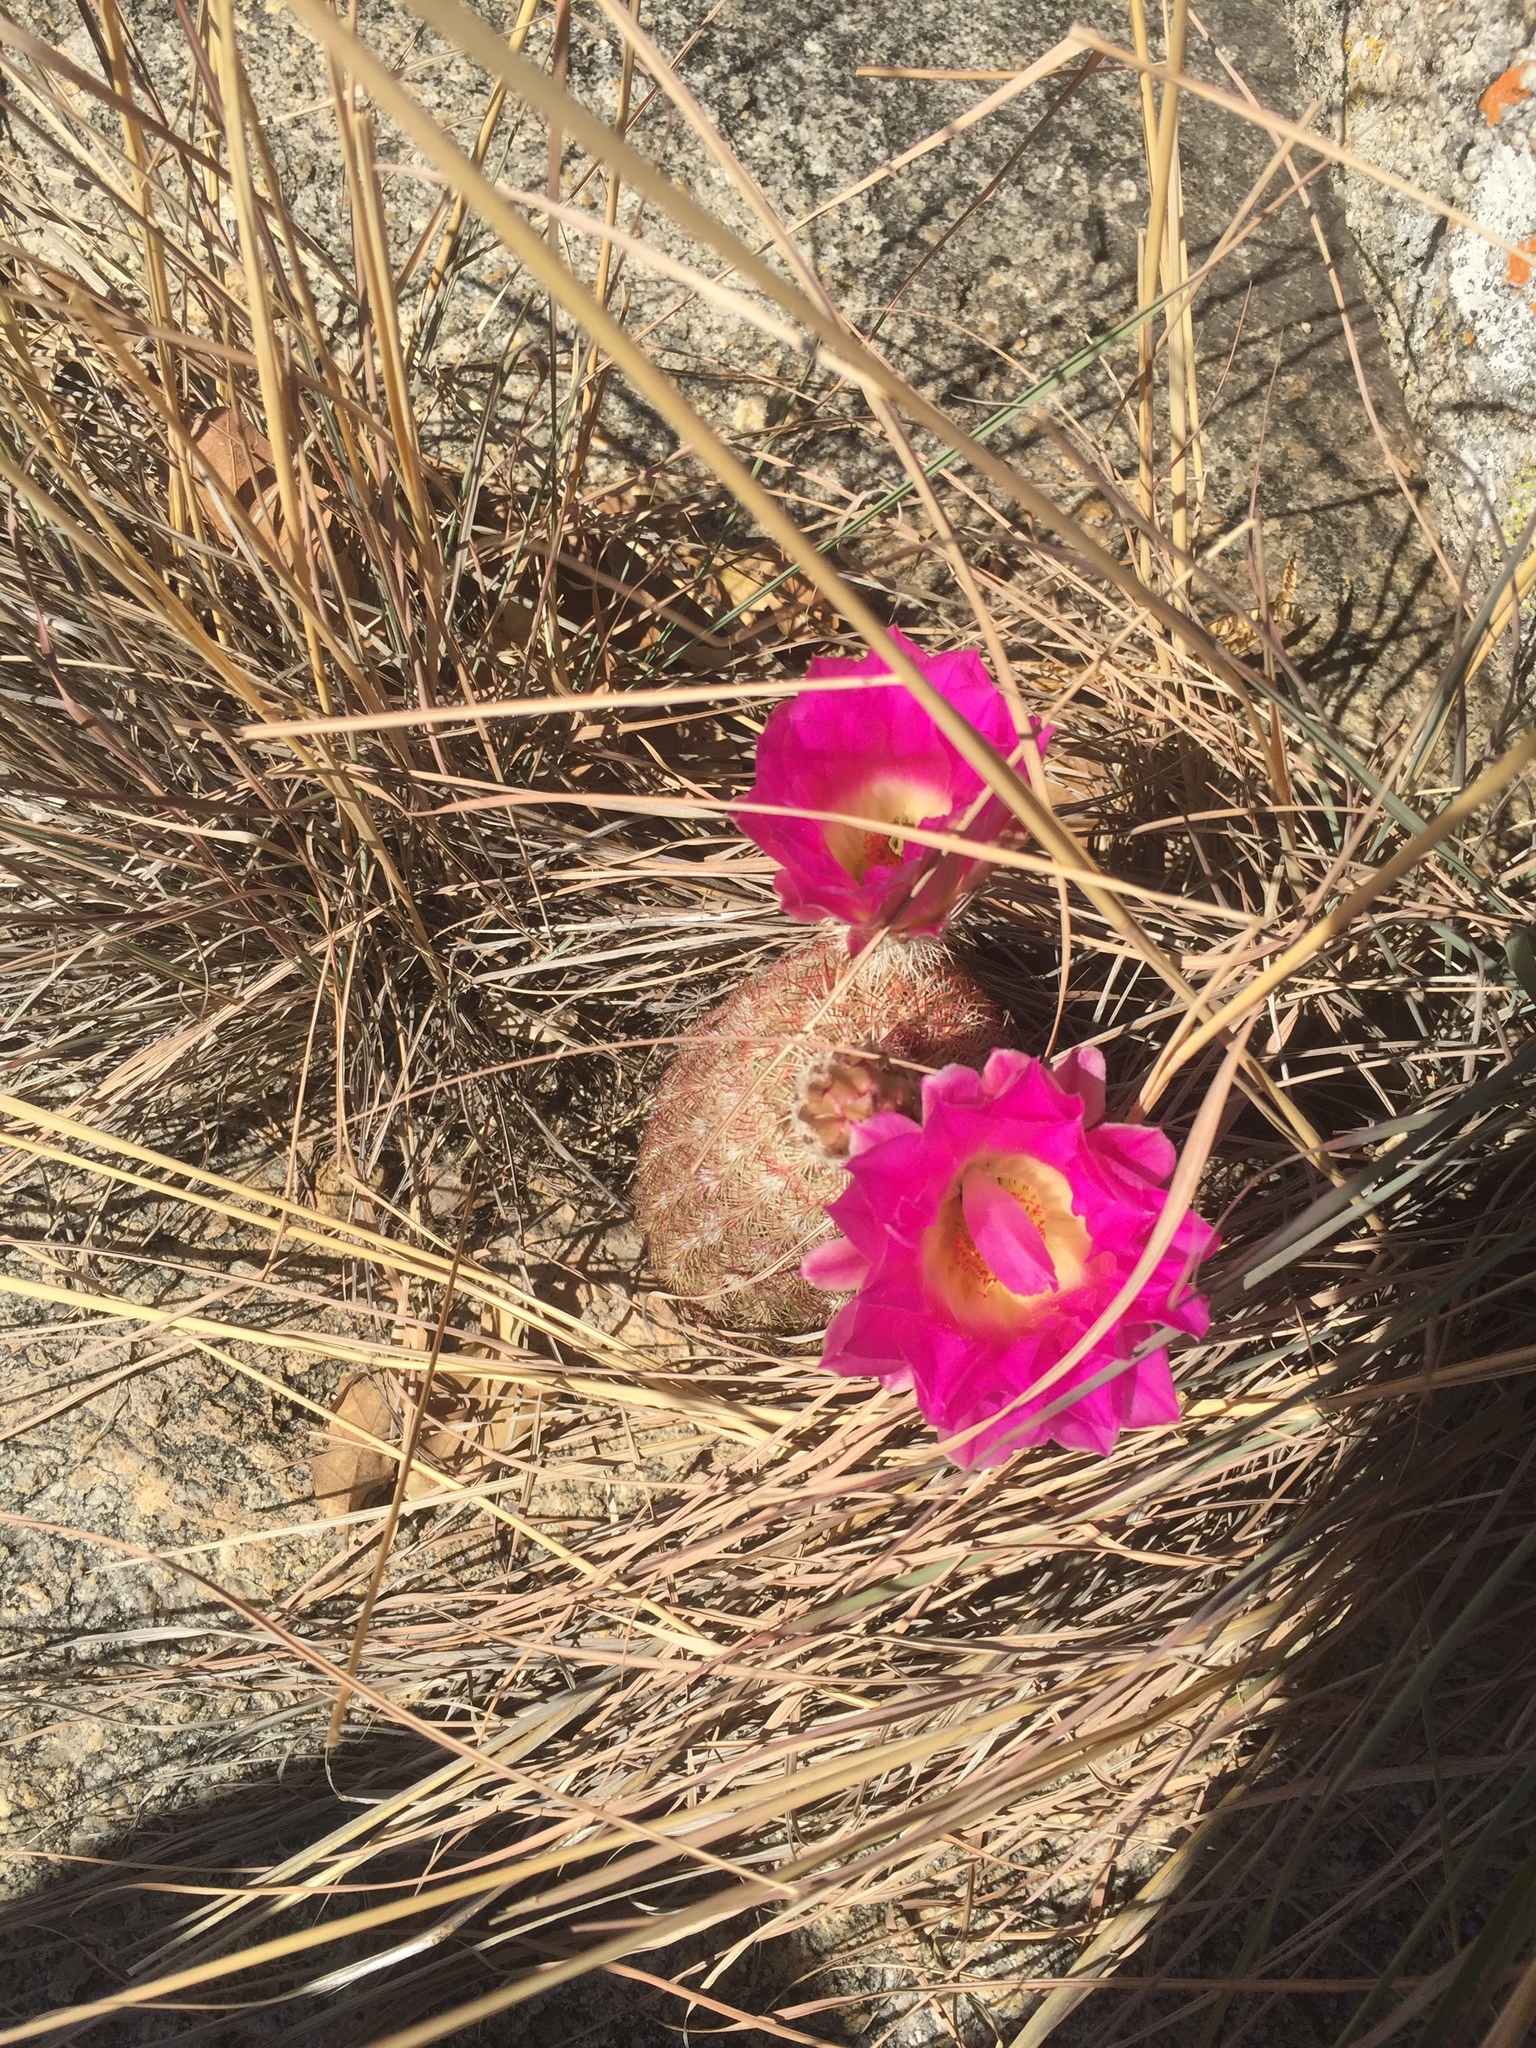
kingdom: Plantae
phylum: Tracheophyta
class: Magnoliopsida
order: Caryophyllales
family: Cactaceae
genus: Echinocereus
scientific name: Echinocereus rigidissimus
